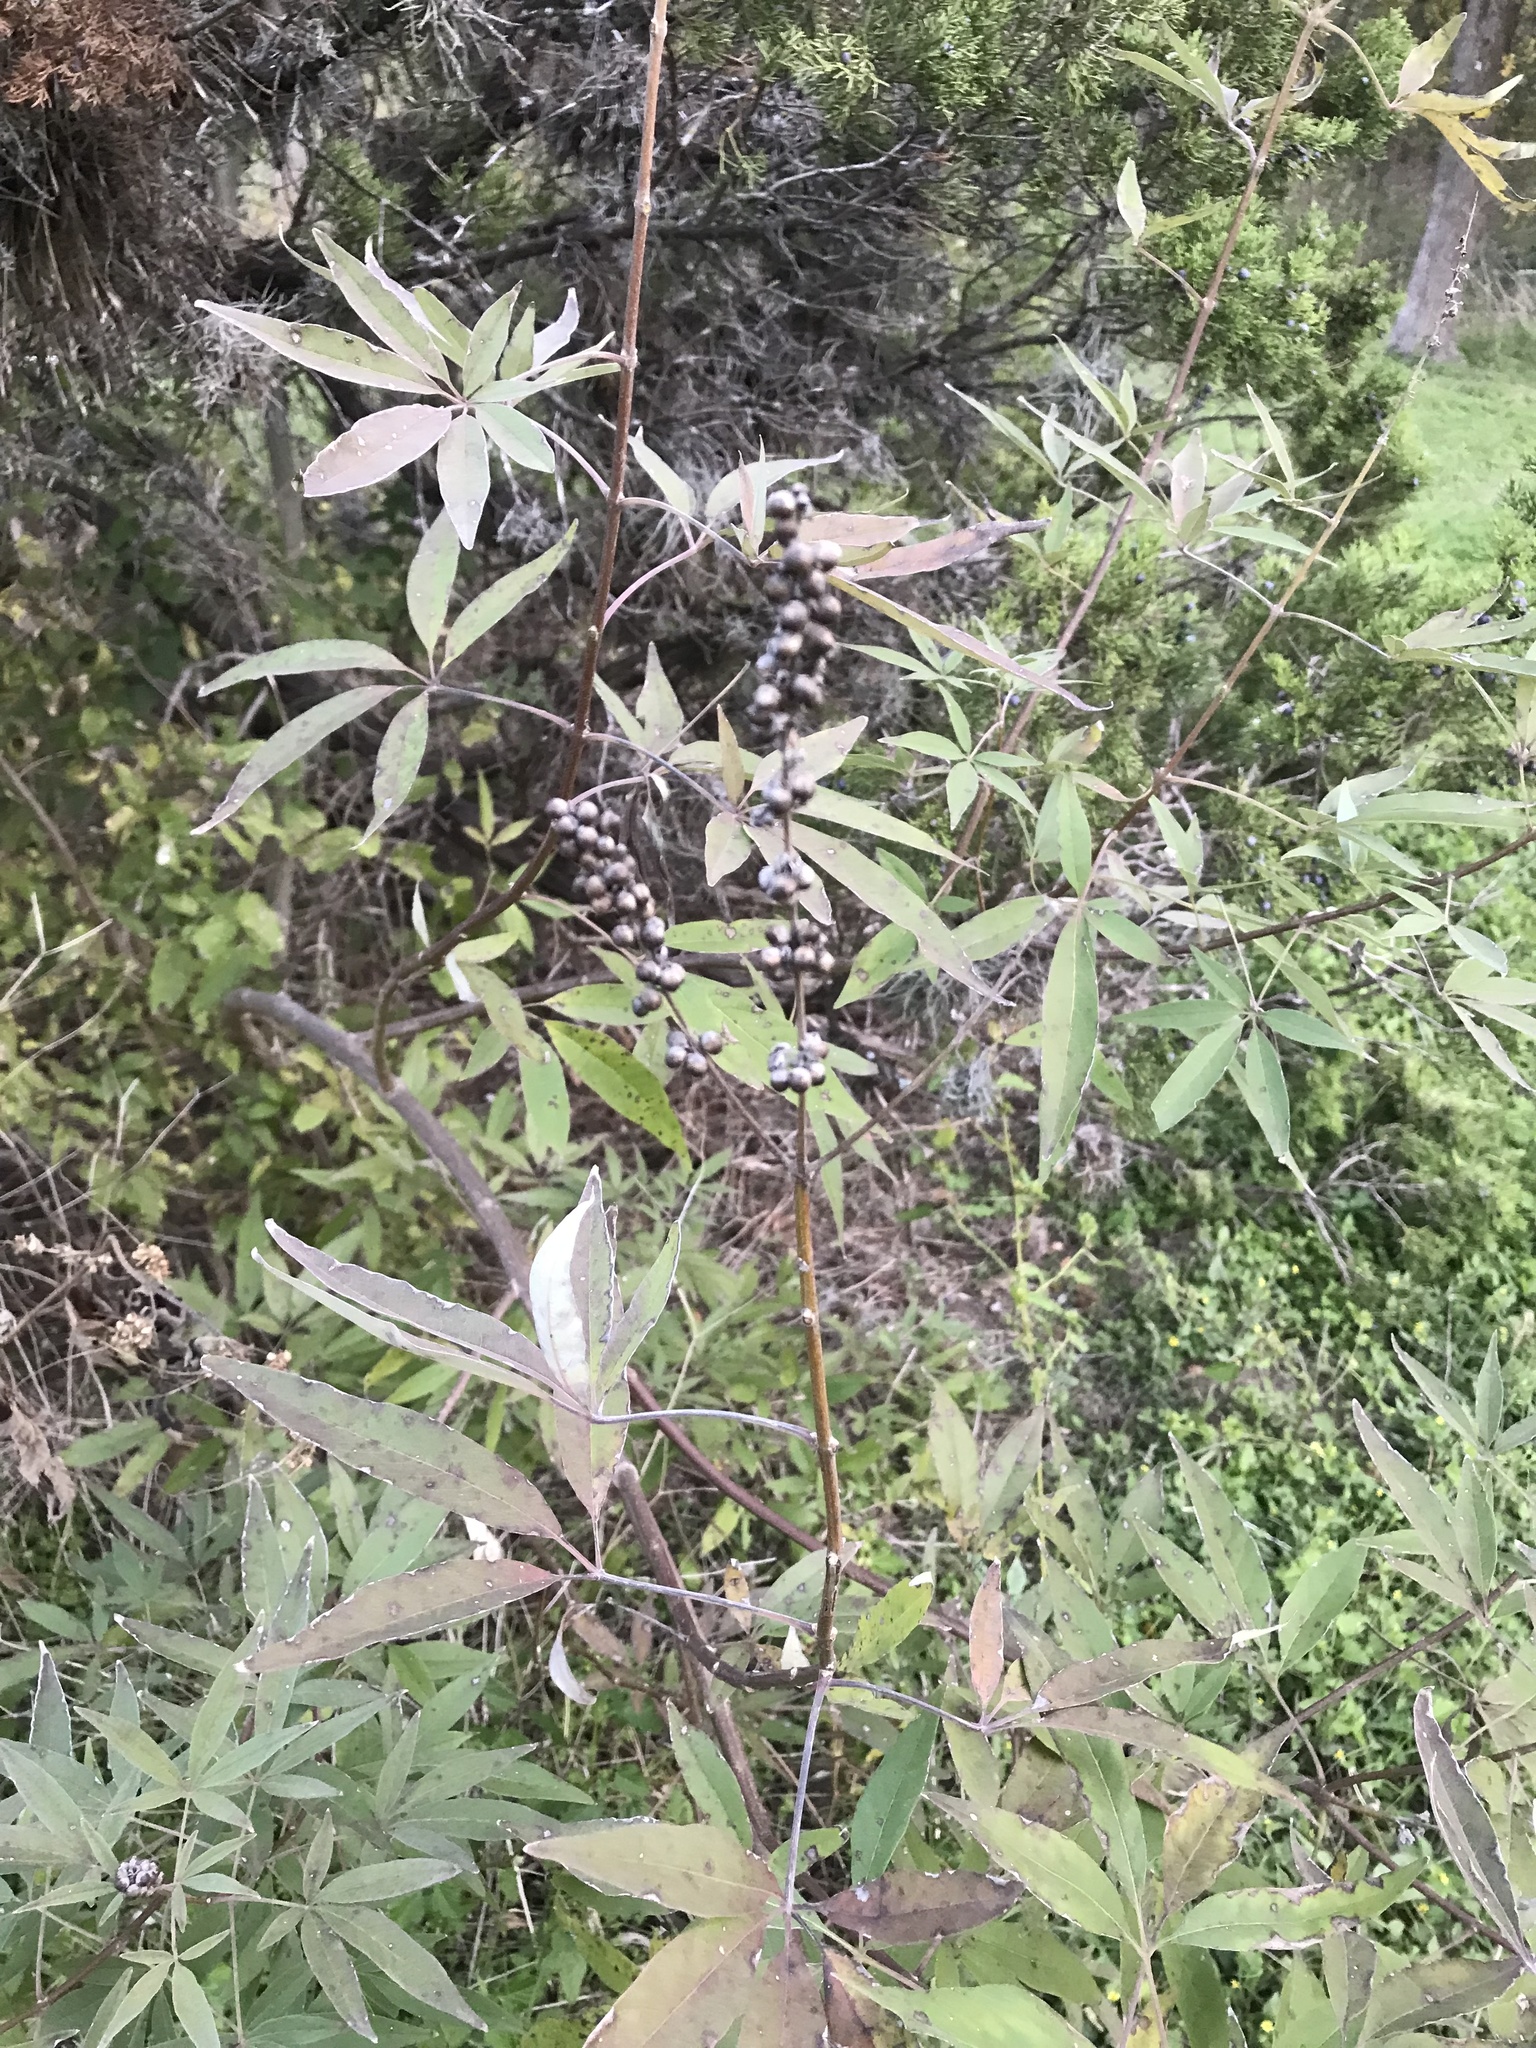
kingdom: Plantae
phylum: Tracheophyta
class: Magnoliopsida
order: Lamiales
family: Lamiaceae
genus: Vitex
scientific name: Vitex agnus-castus
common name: Chasteberry
